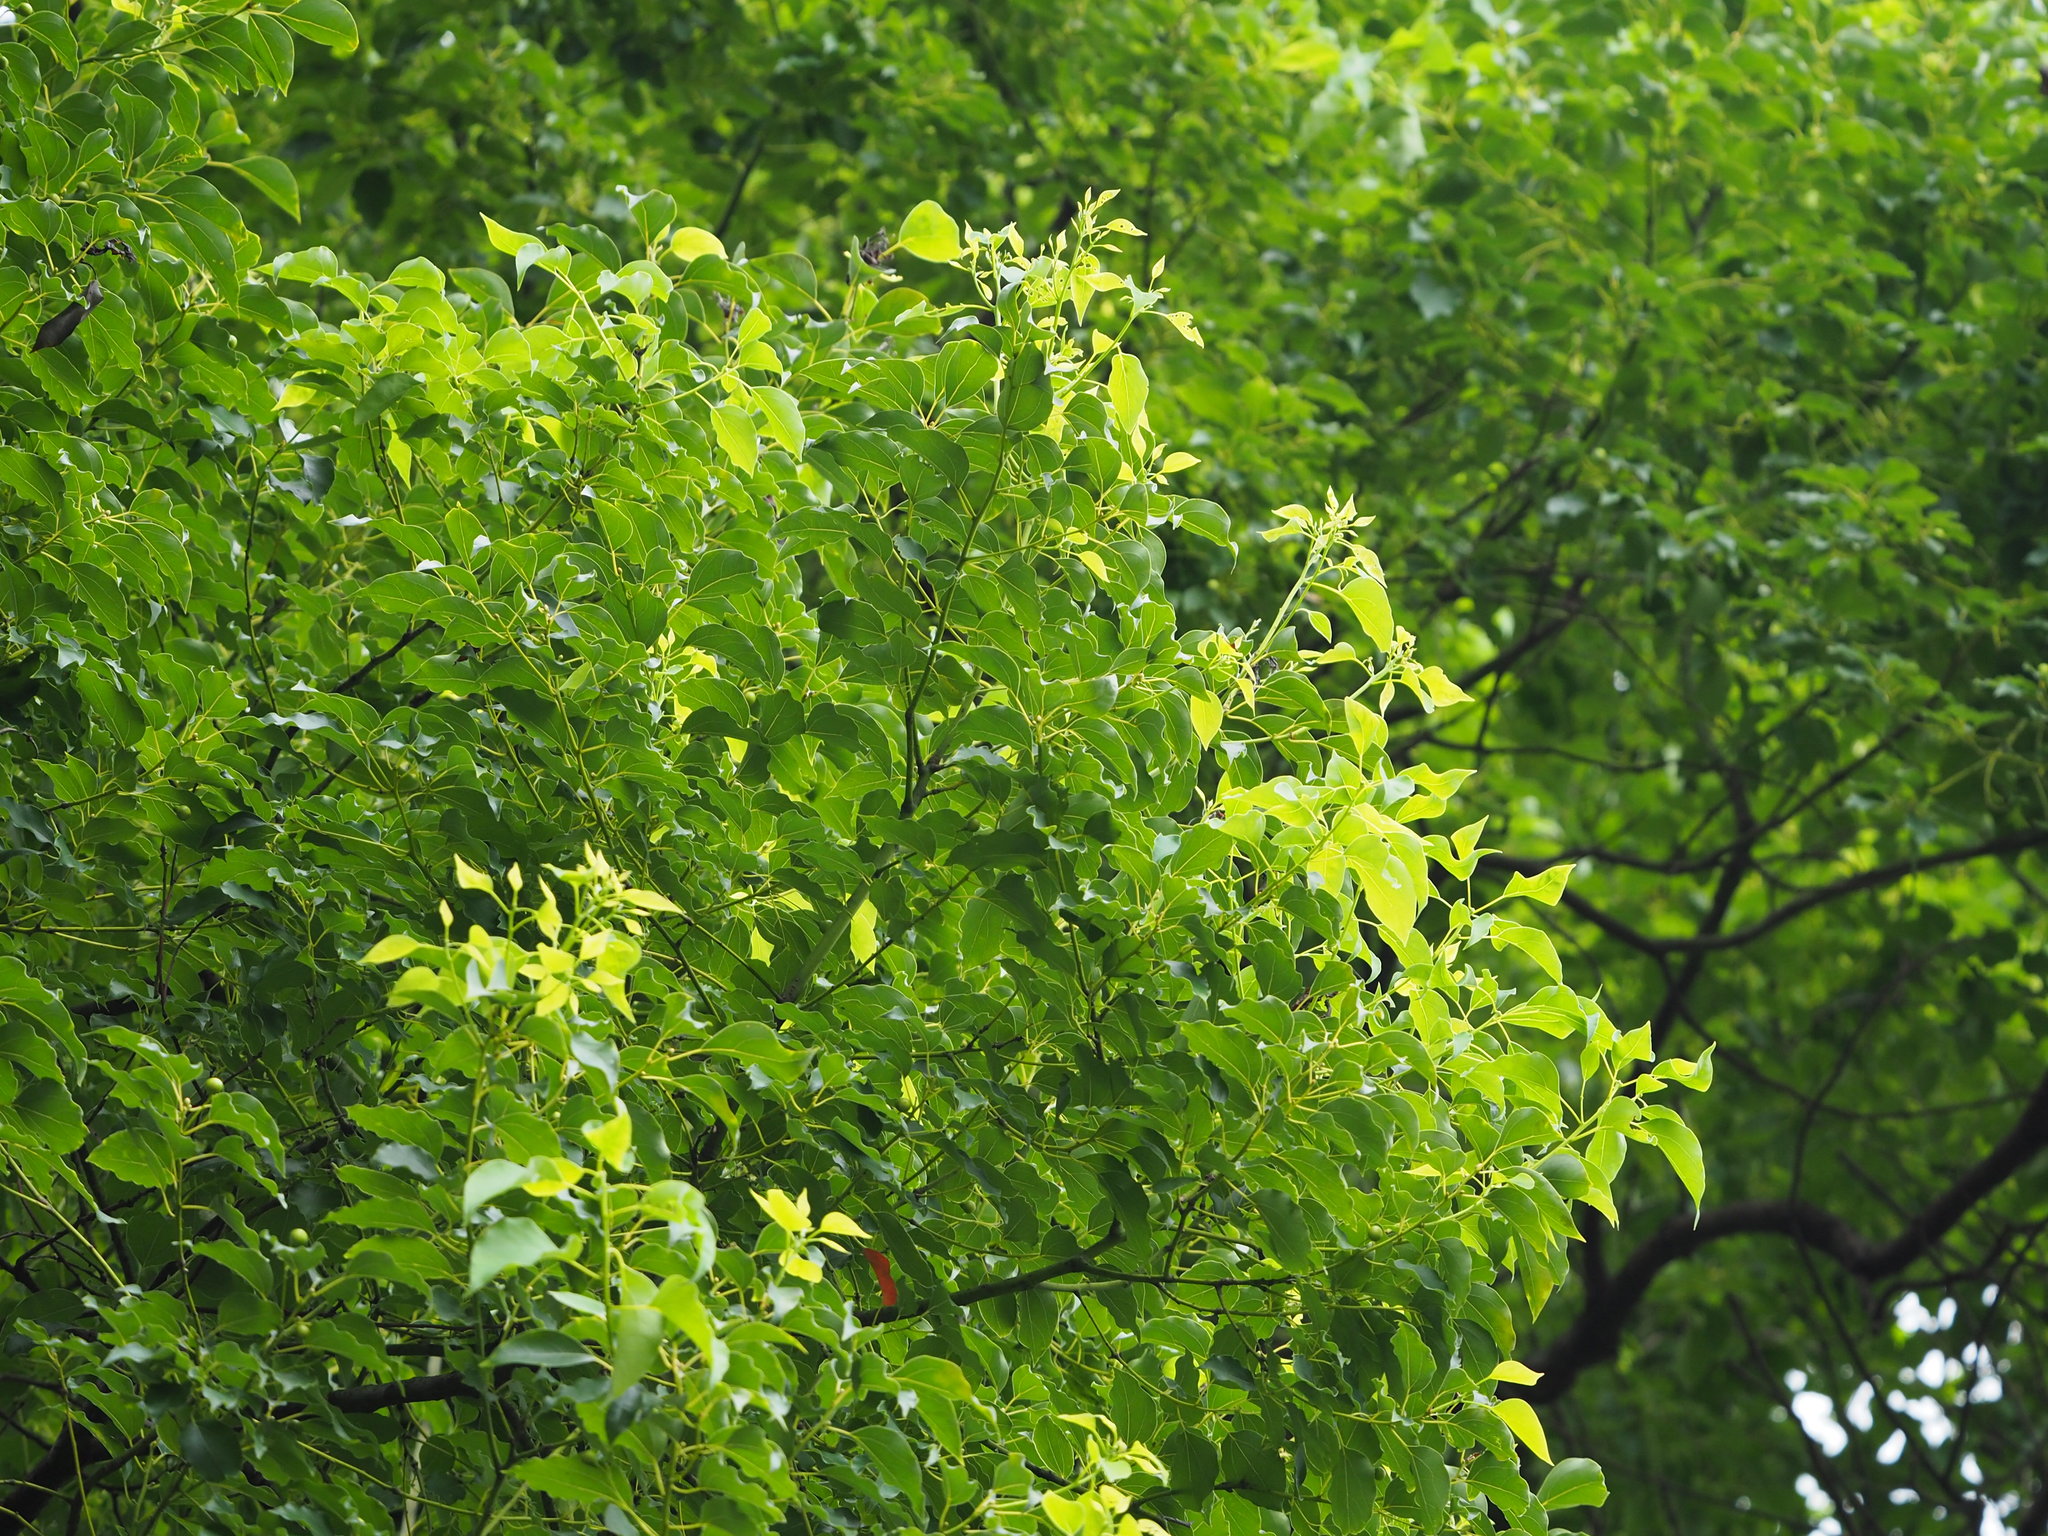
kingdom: Plantae
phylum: Tracheophyta
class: Magnoliopsida
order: Laurales
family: Lauraceae
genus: Cinnamomum
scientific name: Cinnamomum camphora
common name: Camphortree
